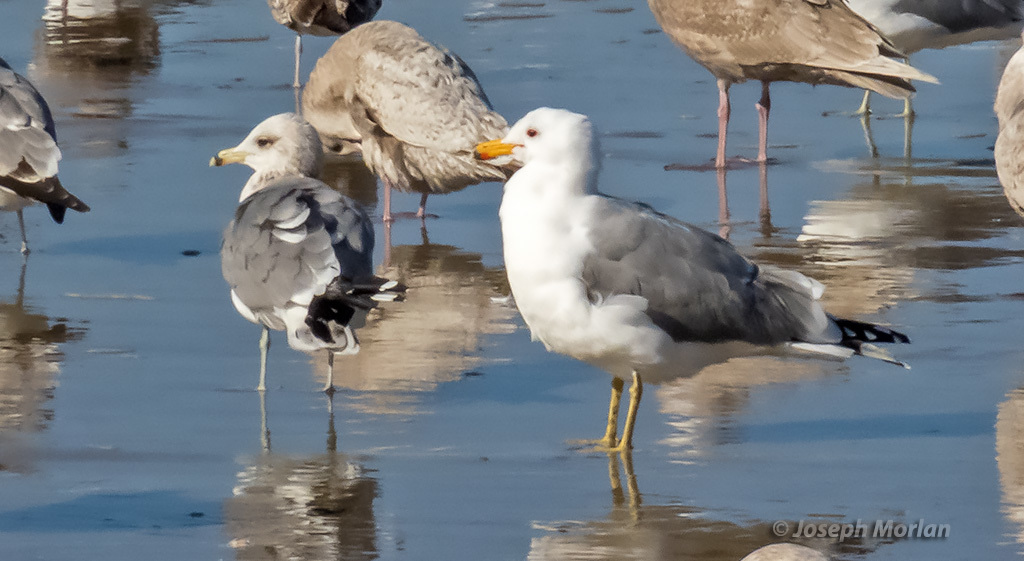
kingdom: Animalia
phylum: Chordata
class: Aves
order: Charadriiformes
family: Laridae
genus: Larus
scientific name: Larus californicus
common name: California gull
